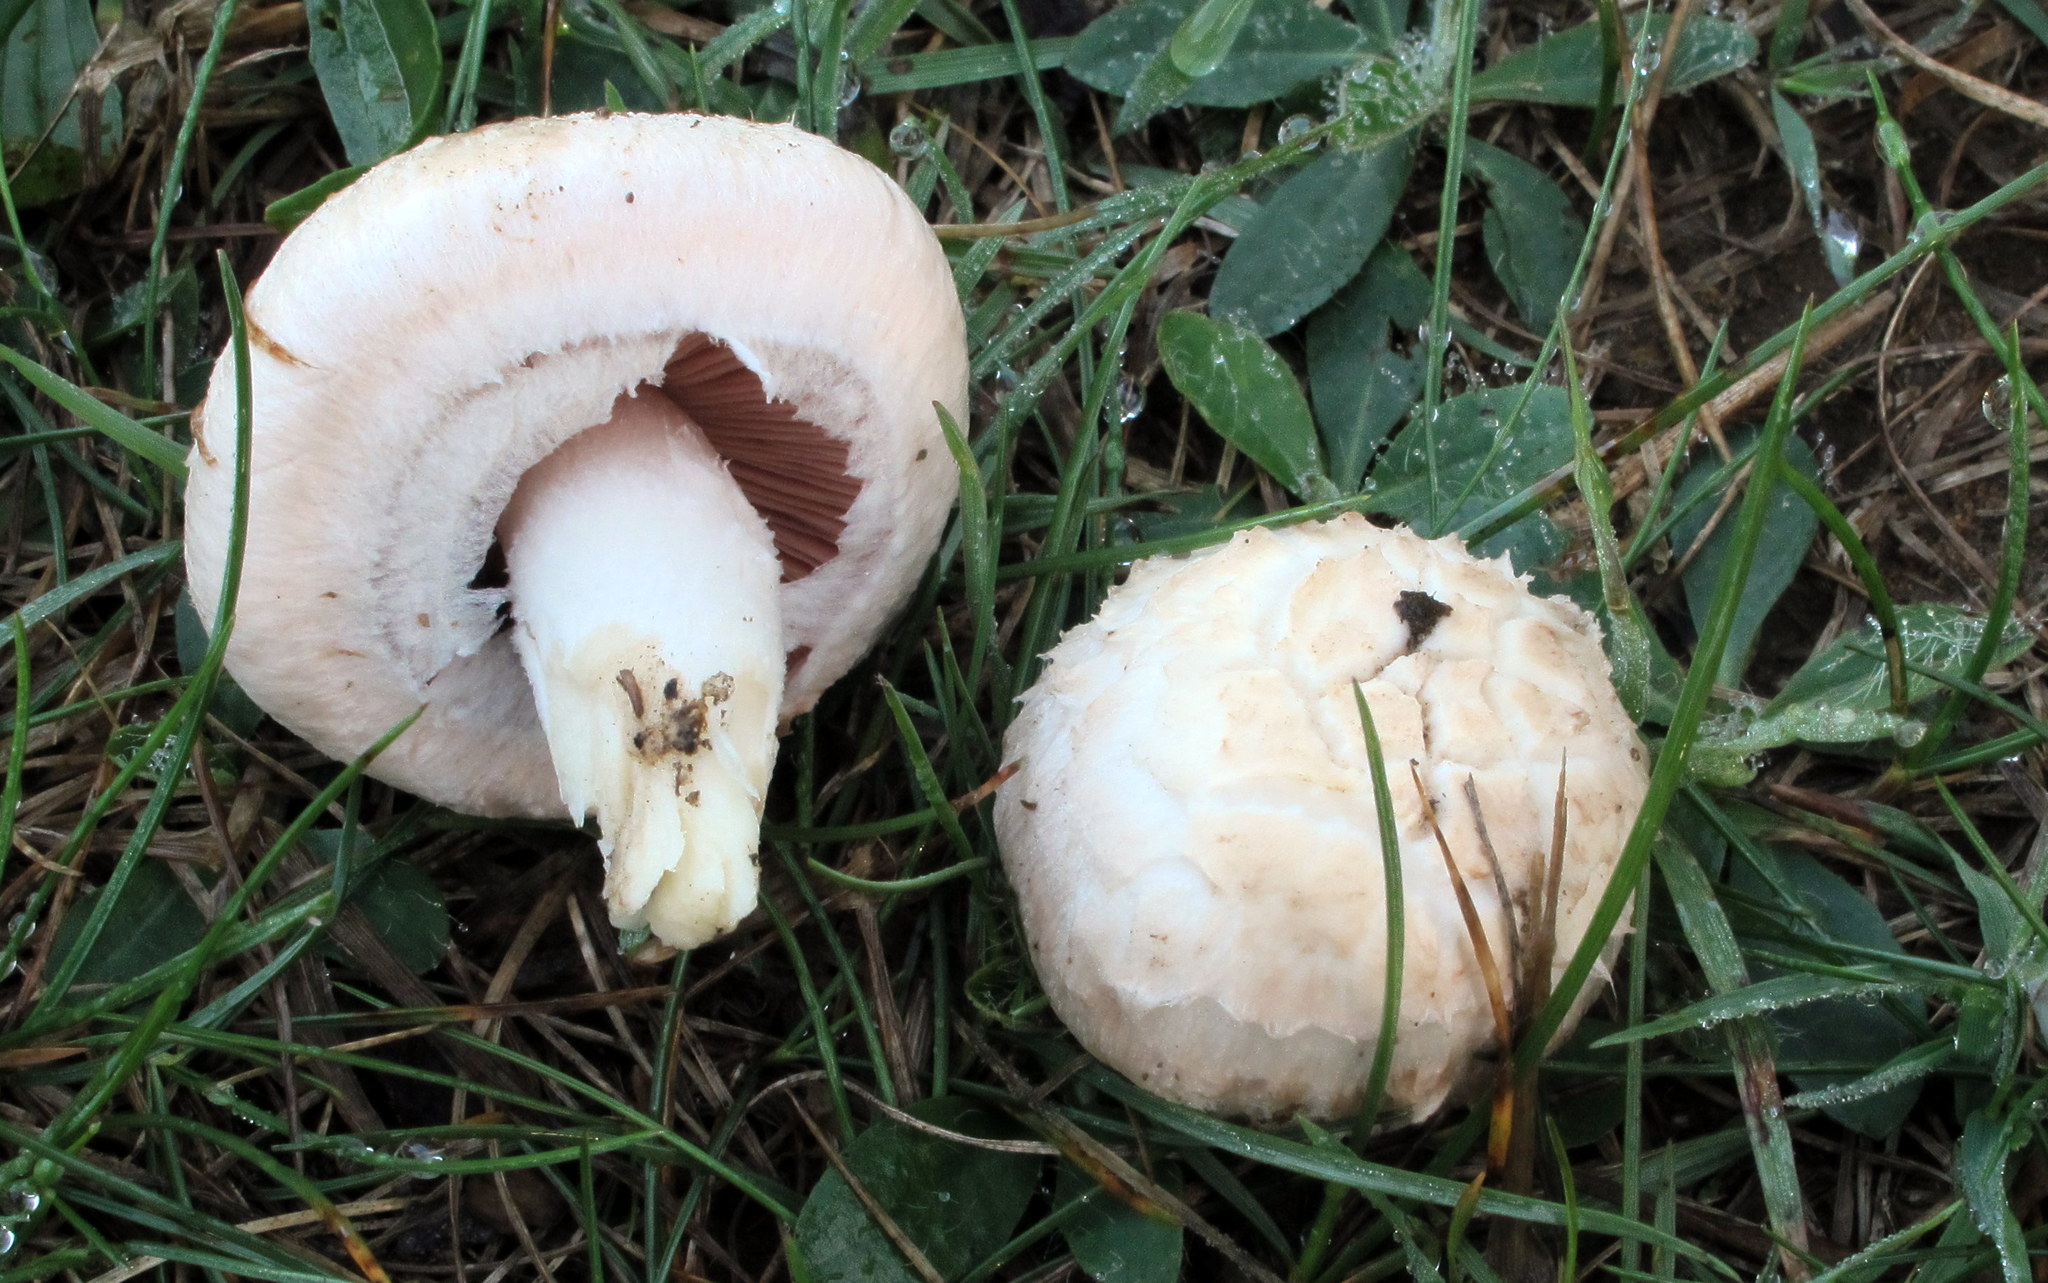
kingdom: Fungi
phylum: Basidiomycota
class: Agaricomycetes
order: Agaricales
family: Agaricaceae
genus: Agaricus
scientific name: Agaricus campestris
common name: Field mushroom
